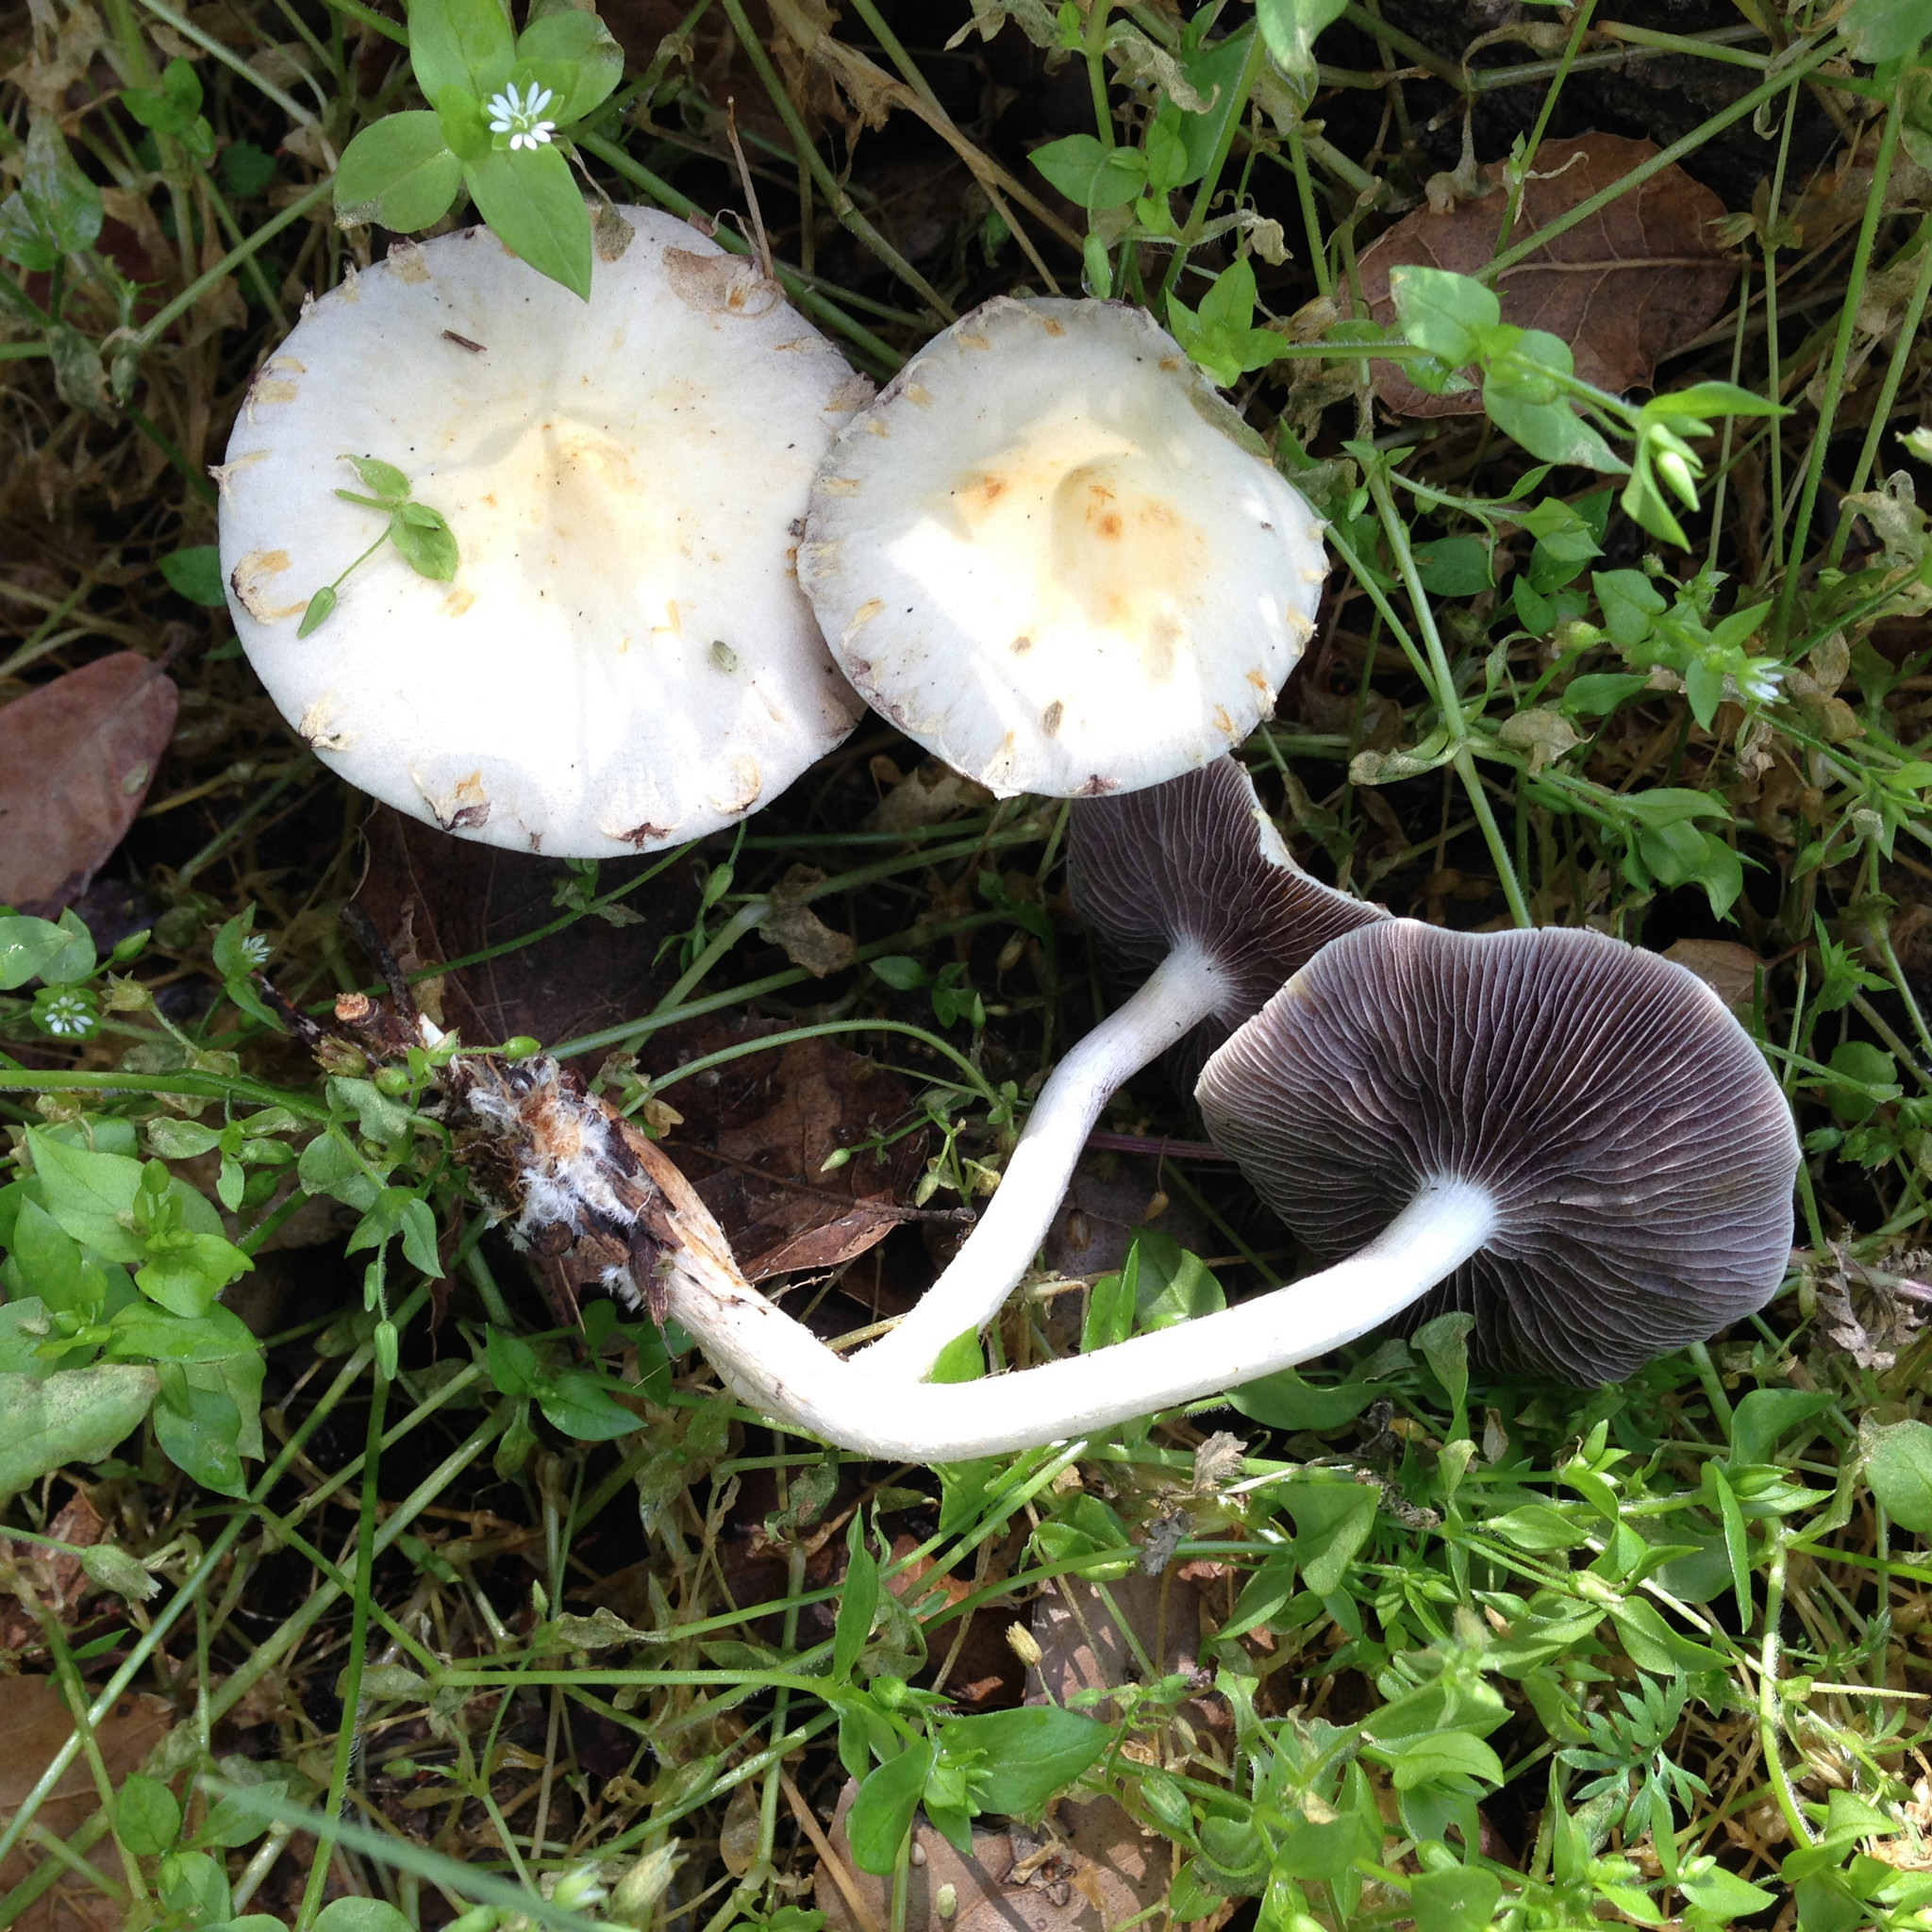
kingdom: Fungi
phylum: Basidiomycota
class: Agaricomycetes
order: Agaricales
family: Strophariaceae
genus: Leratiomyces
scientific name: Leratiomyces percevalii
